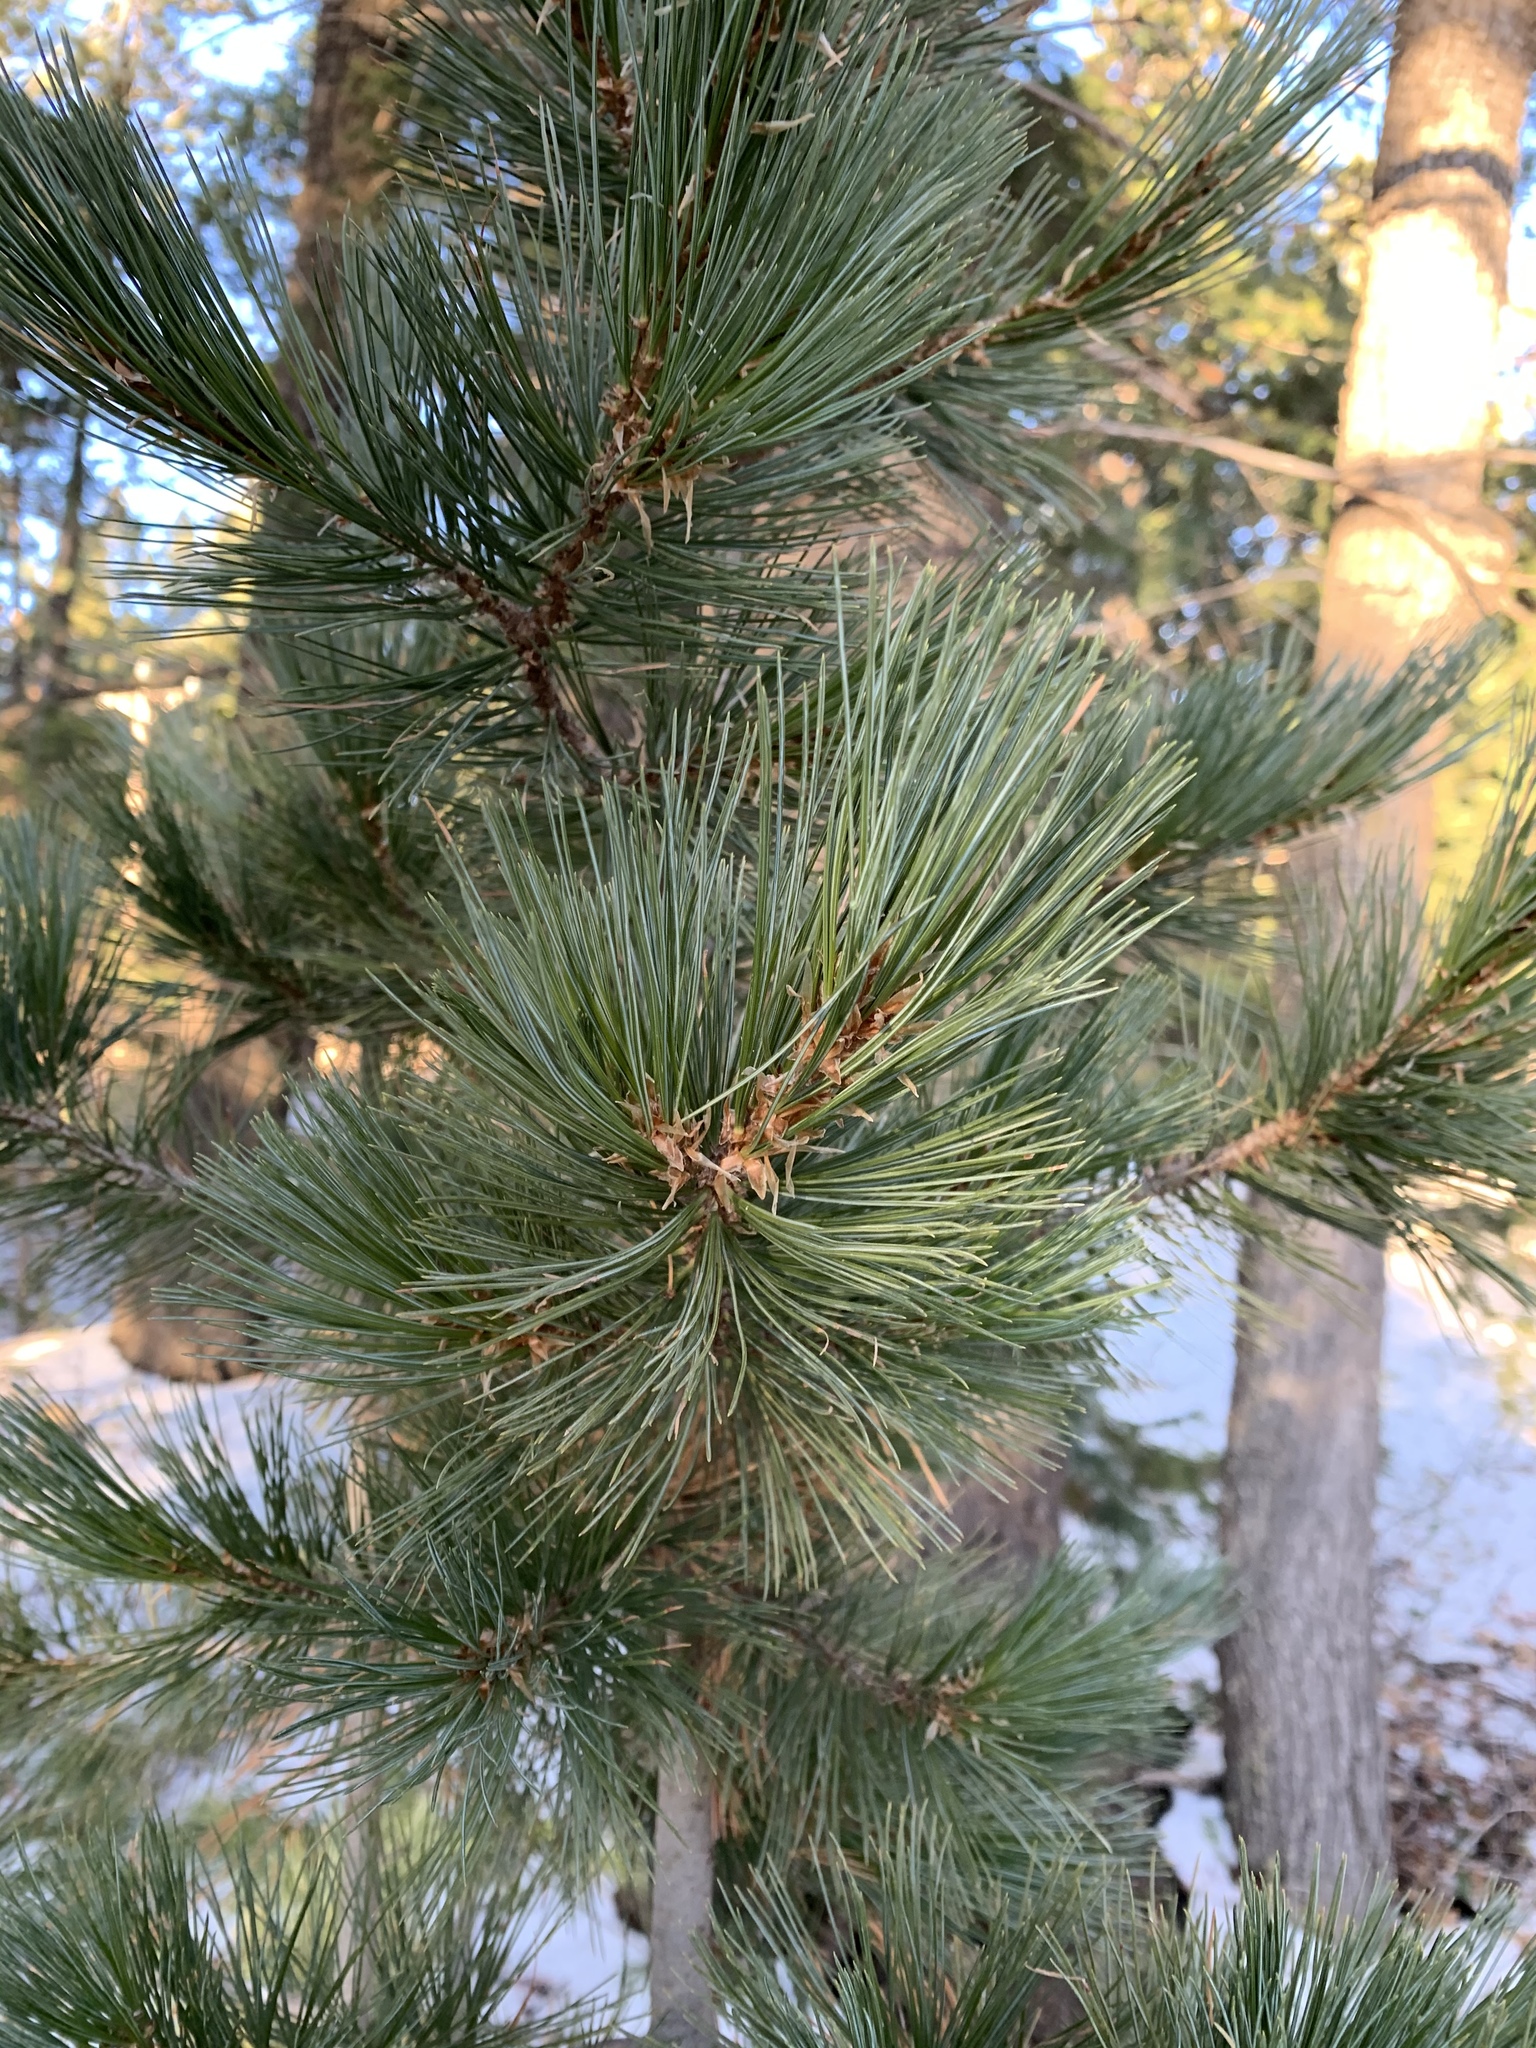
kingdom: Plantae
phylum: Tracheophyta
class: Pinopsida
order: Pinales
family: Pinaceae
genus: Pinus
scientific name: Pinus ponderosa
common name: Western yellow-pine
